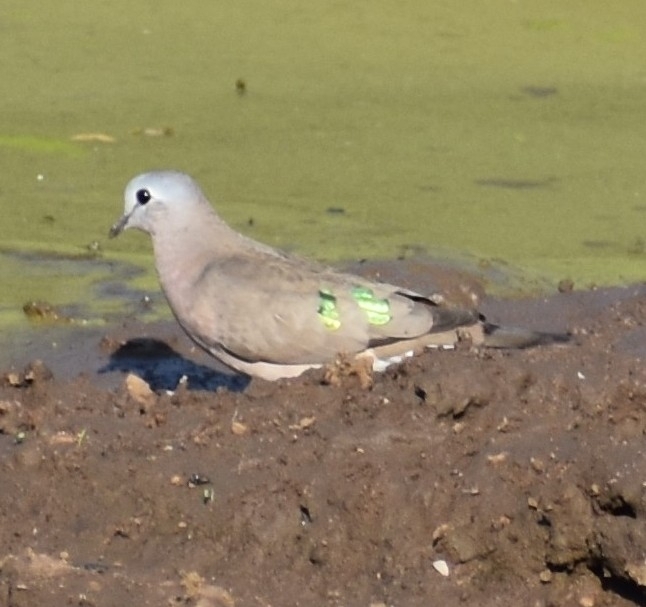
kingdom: Animalia
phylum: Chordata
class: Aves
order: Columbiformes
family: Columbidae
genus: Turtur
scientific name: Turtur chalcospilos
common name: Emerald-spotted wood dove
